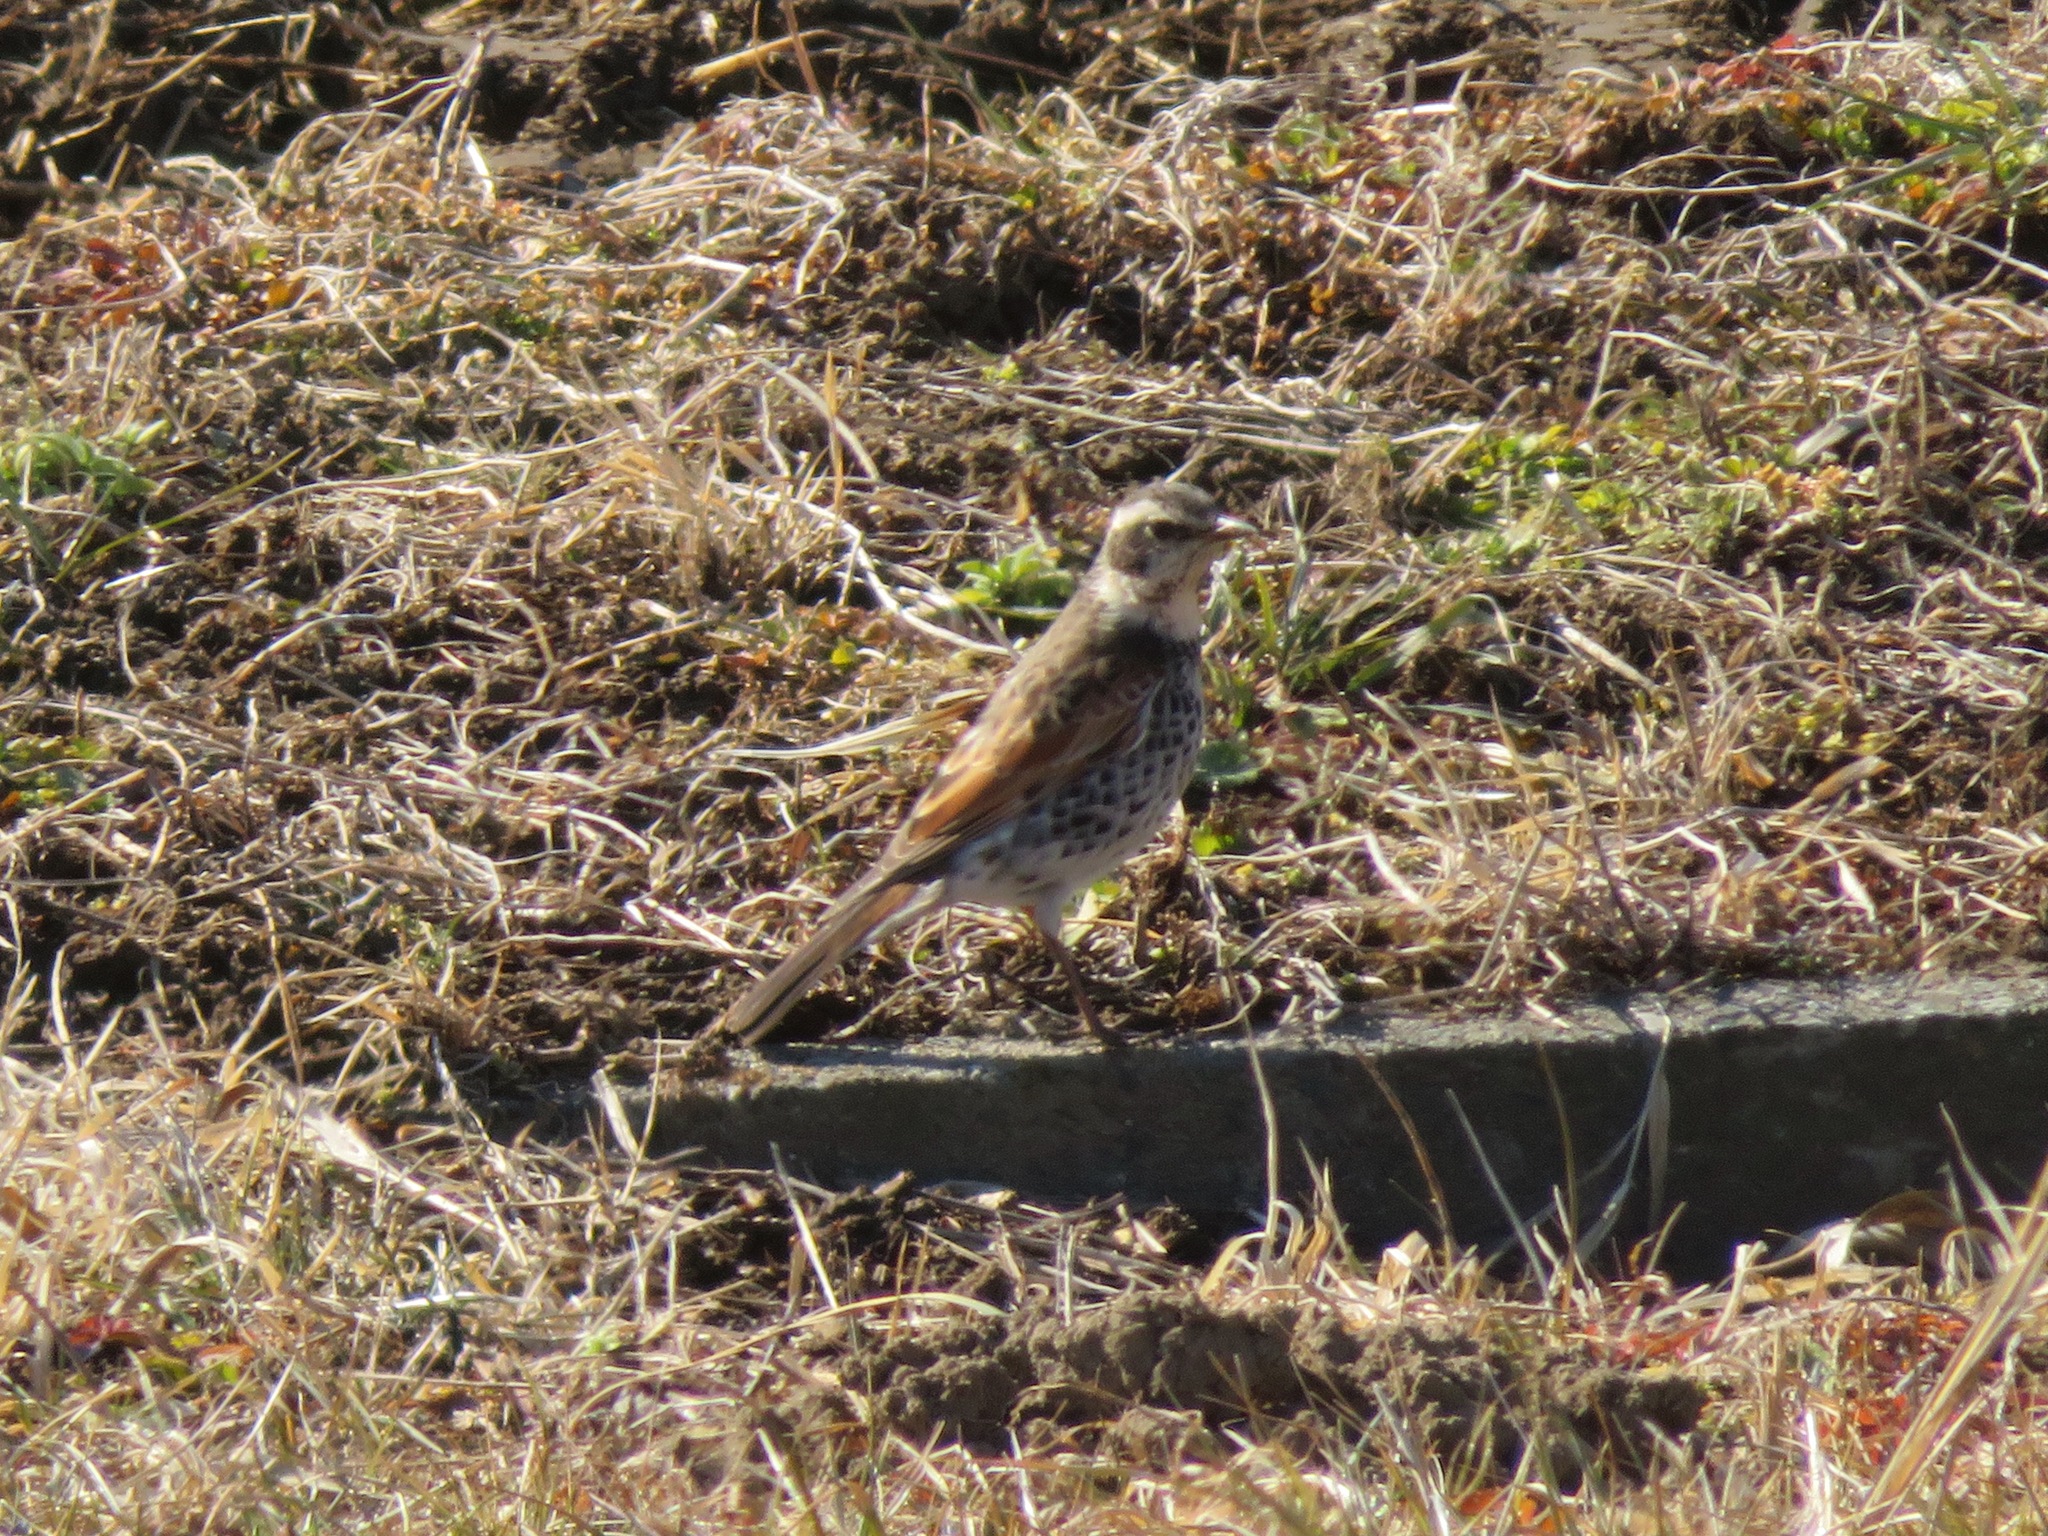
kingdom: Animalia
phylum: Chordata
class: Aves
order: Passeriformes
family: Turdidae
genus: Turdus
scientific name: Turdus eunomus
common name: Dusky thrush
